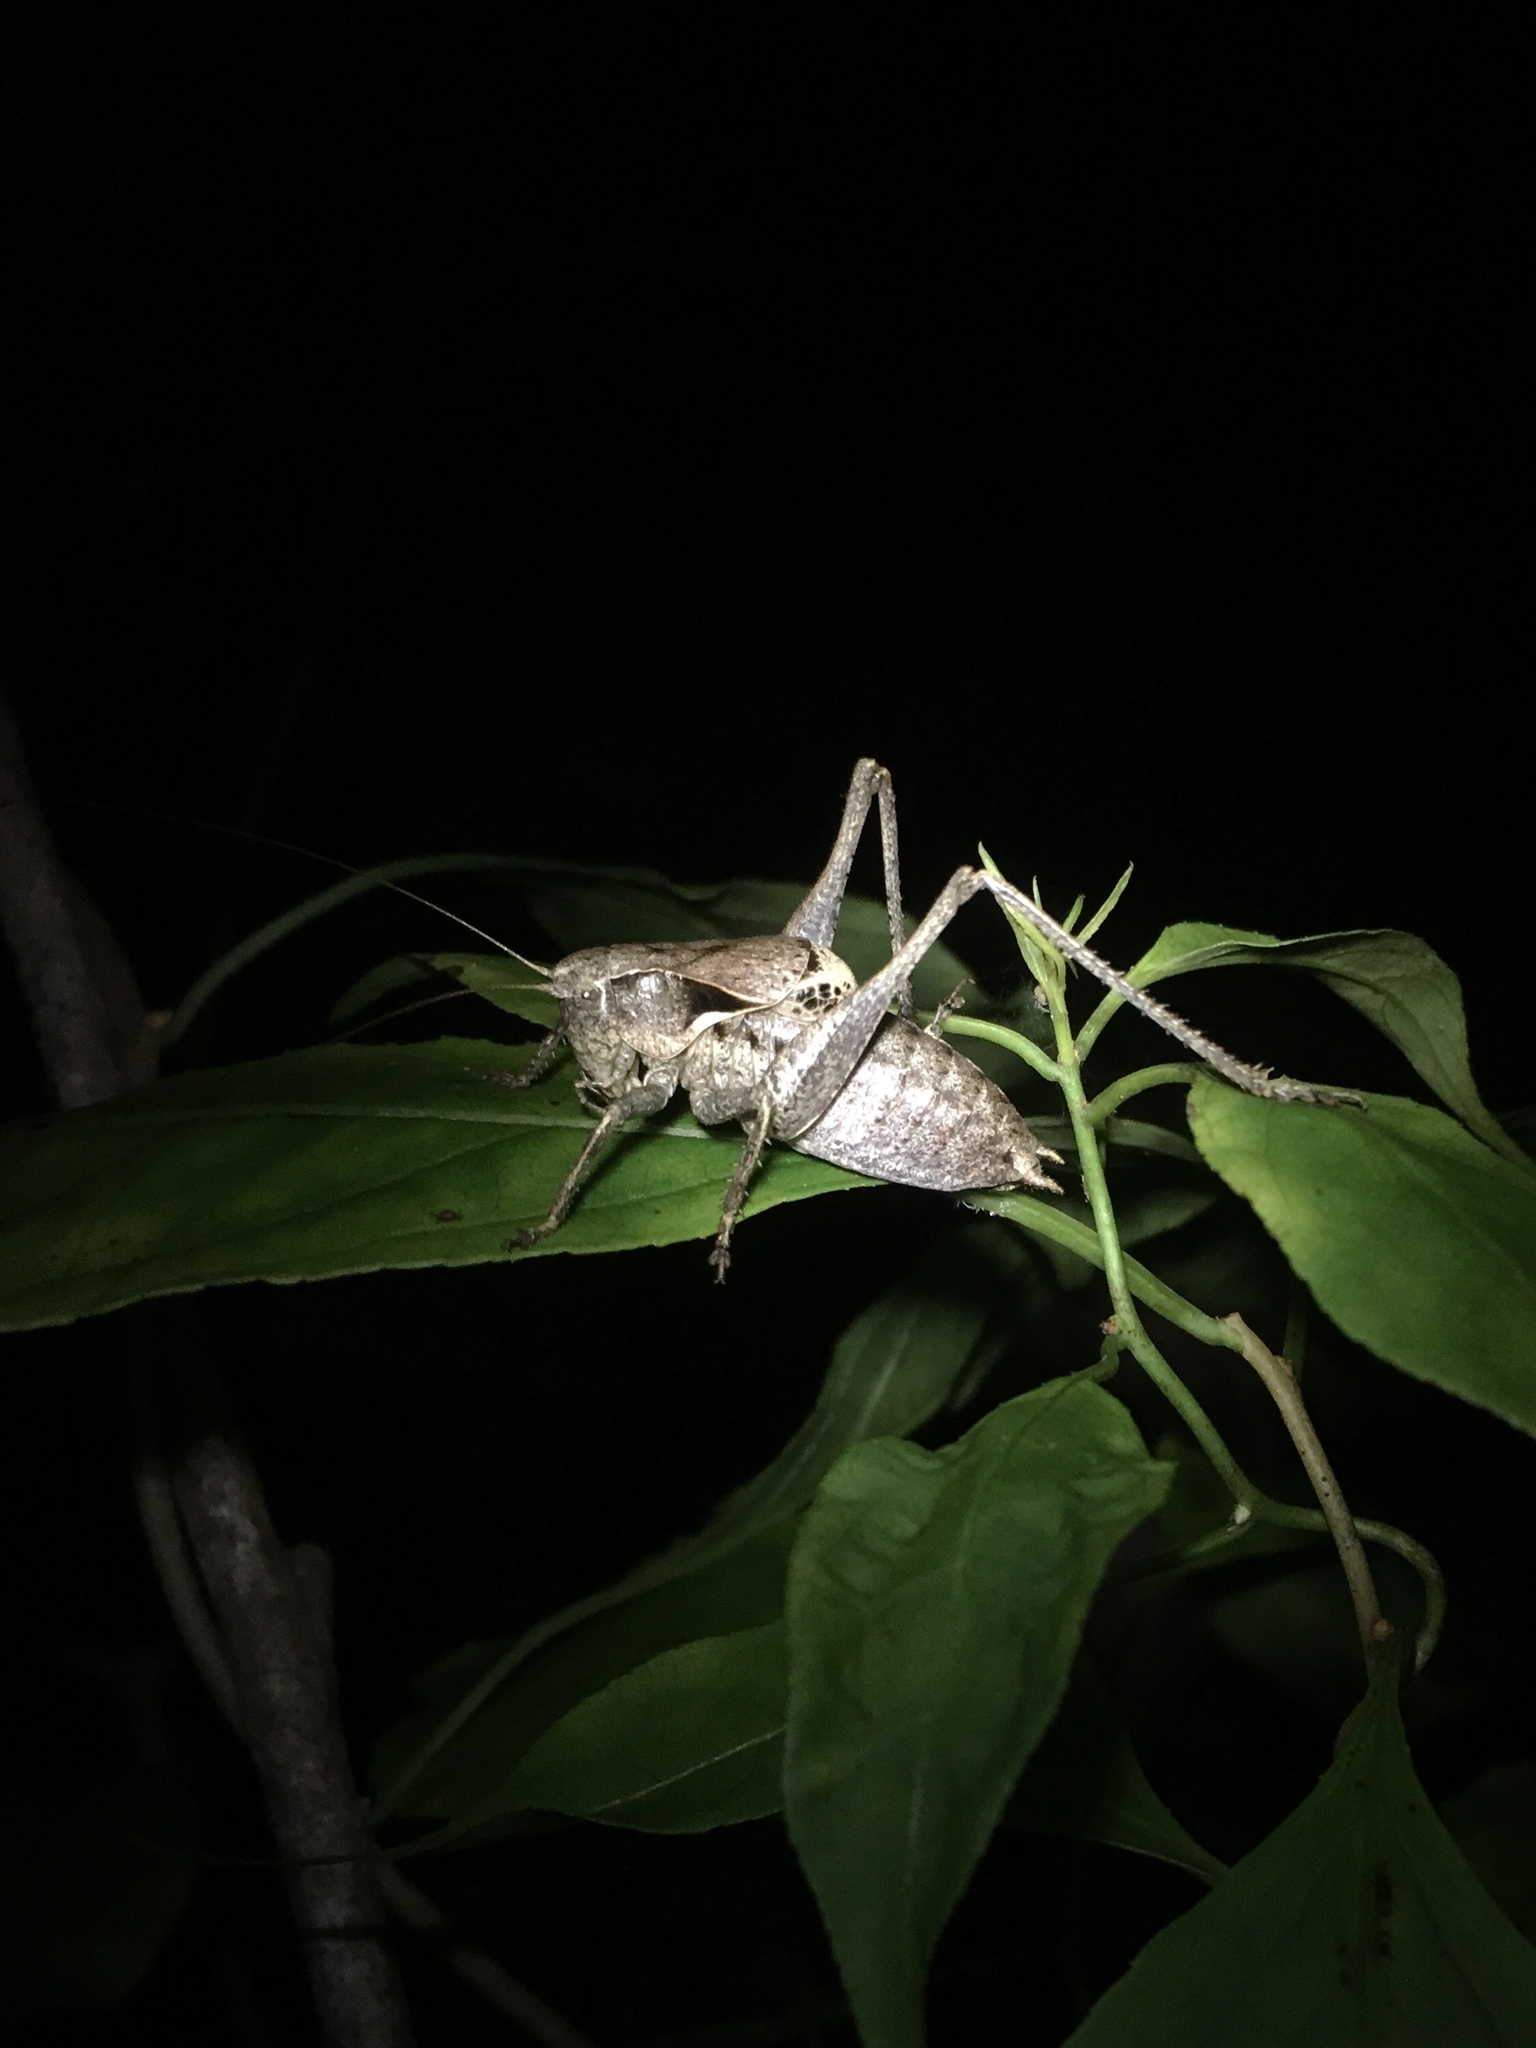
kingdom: Animalia
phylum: Arthropoda
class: Insecta
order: Orthoptera
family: Tettigoniidae
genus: Atlanticus
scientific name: Atlanticus davisi
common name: Davis's shield-bearer
